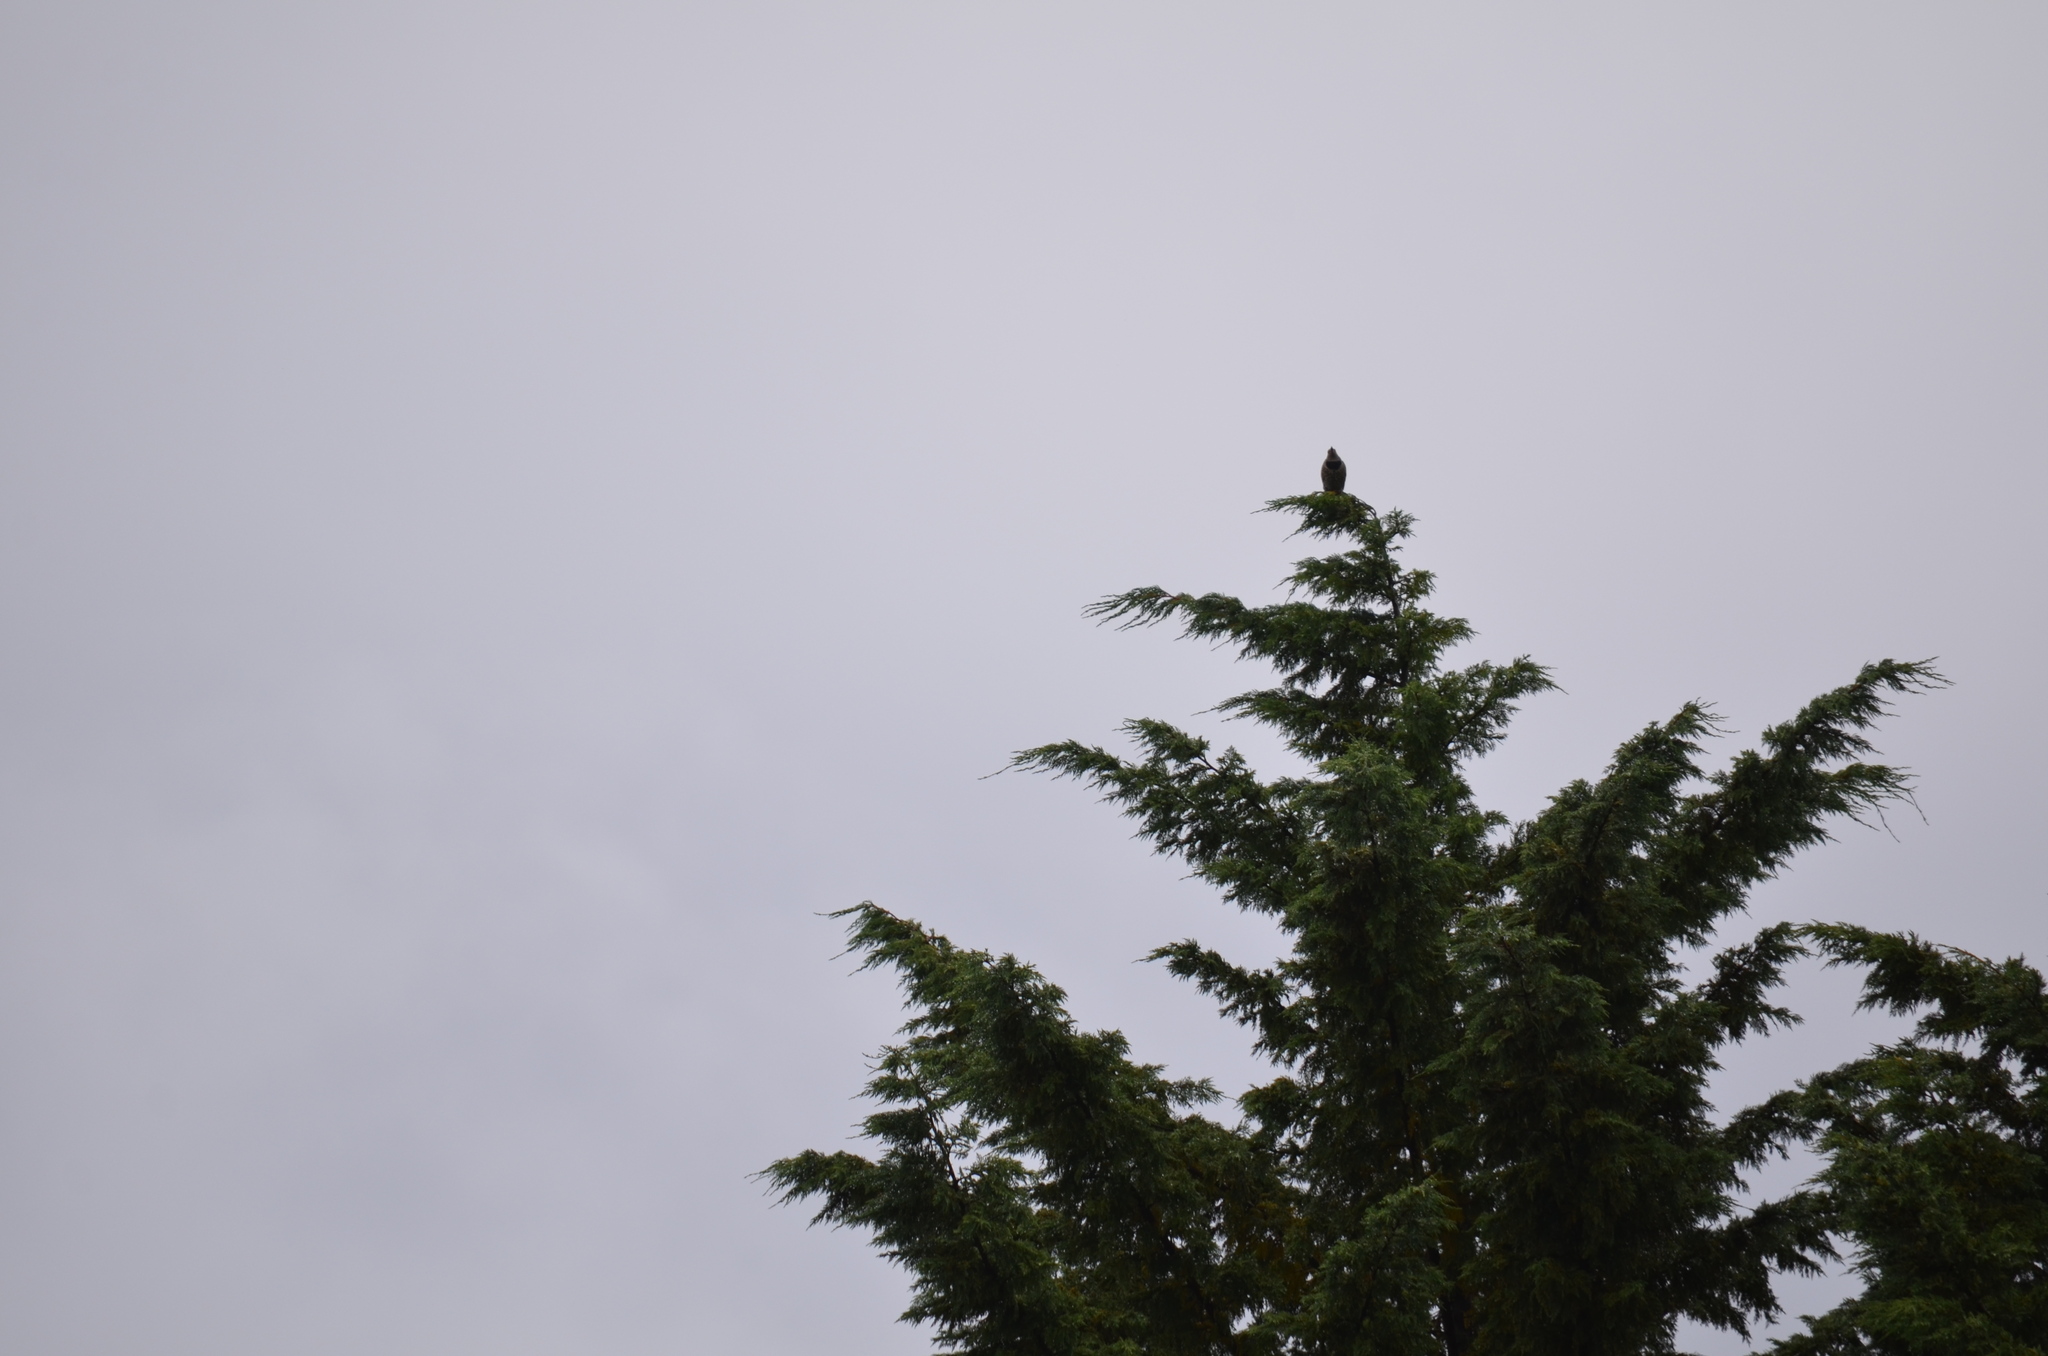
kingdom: Animalia
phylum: Chordata
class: Aves
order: Piciformes
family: Picidae
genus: Colaptes
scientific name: Colaptes auratus
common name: Northern flicker
